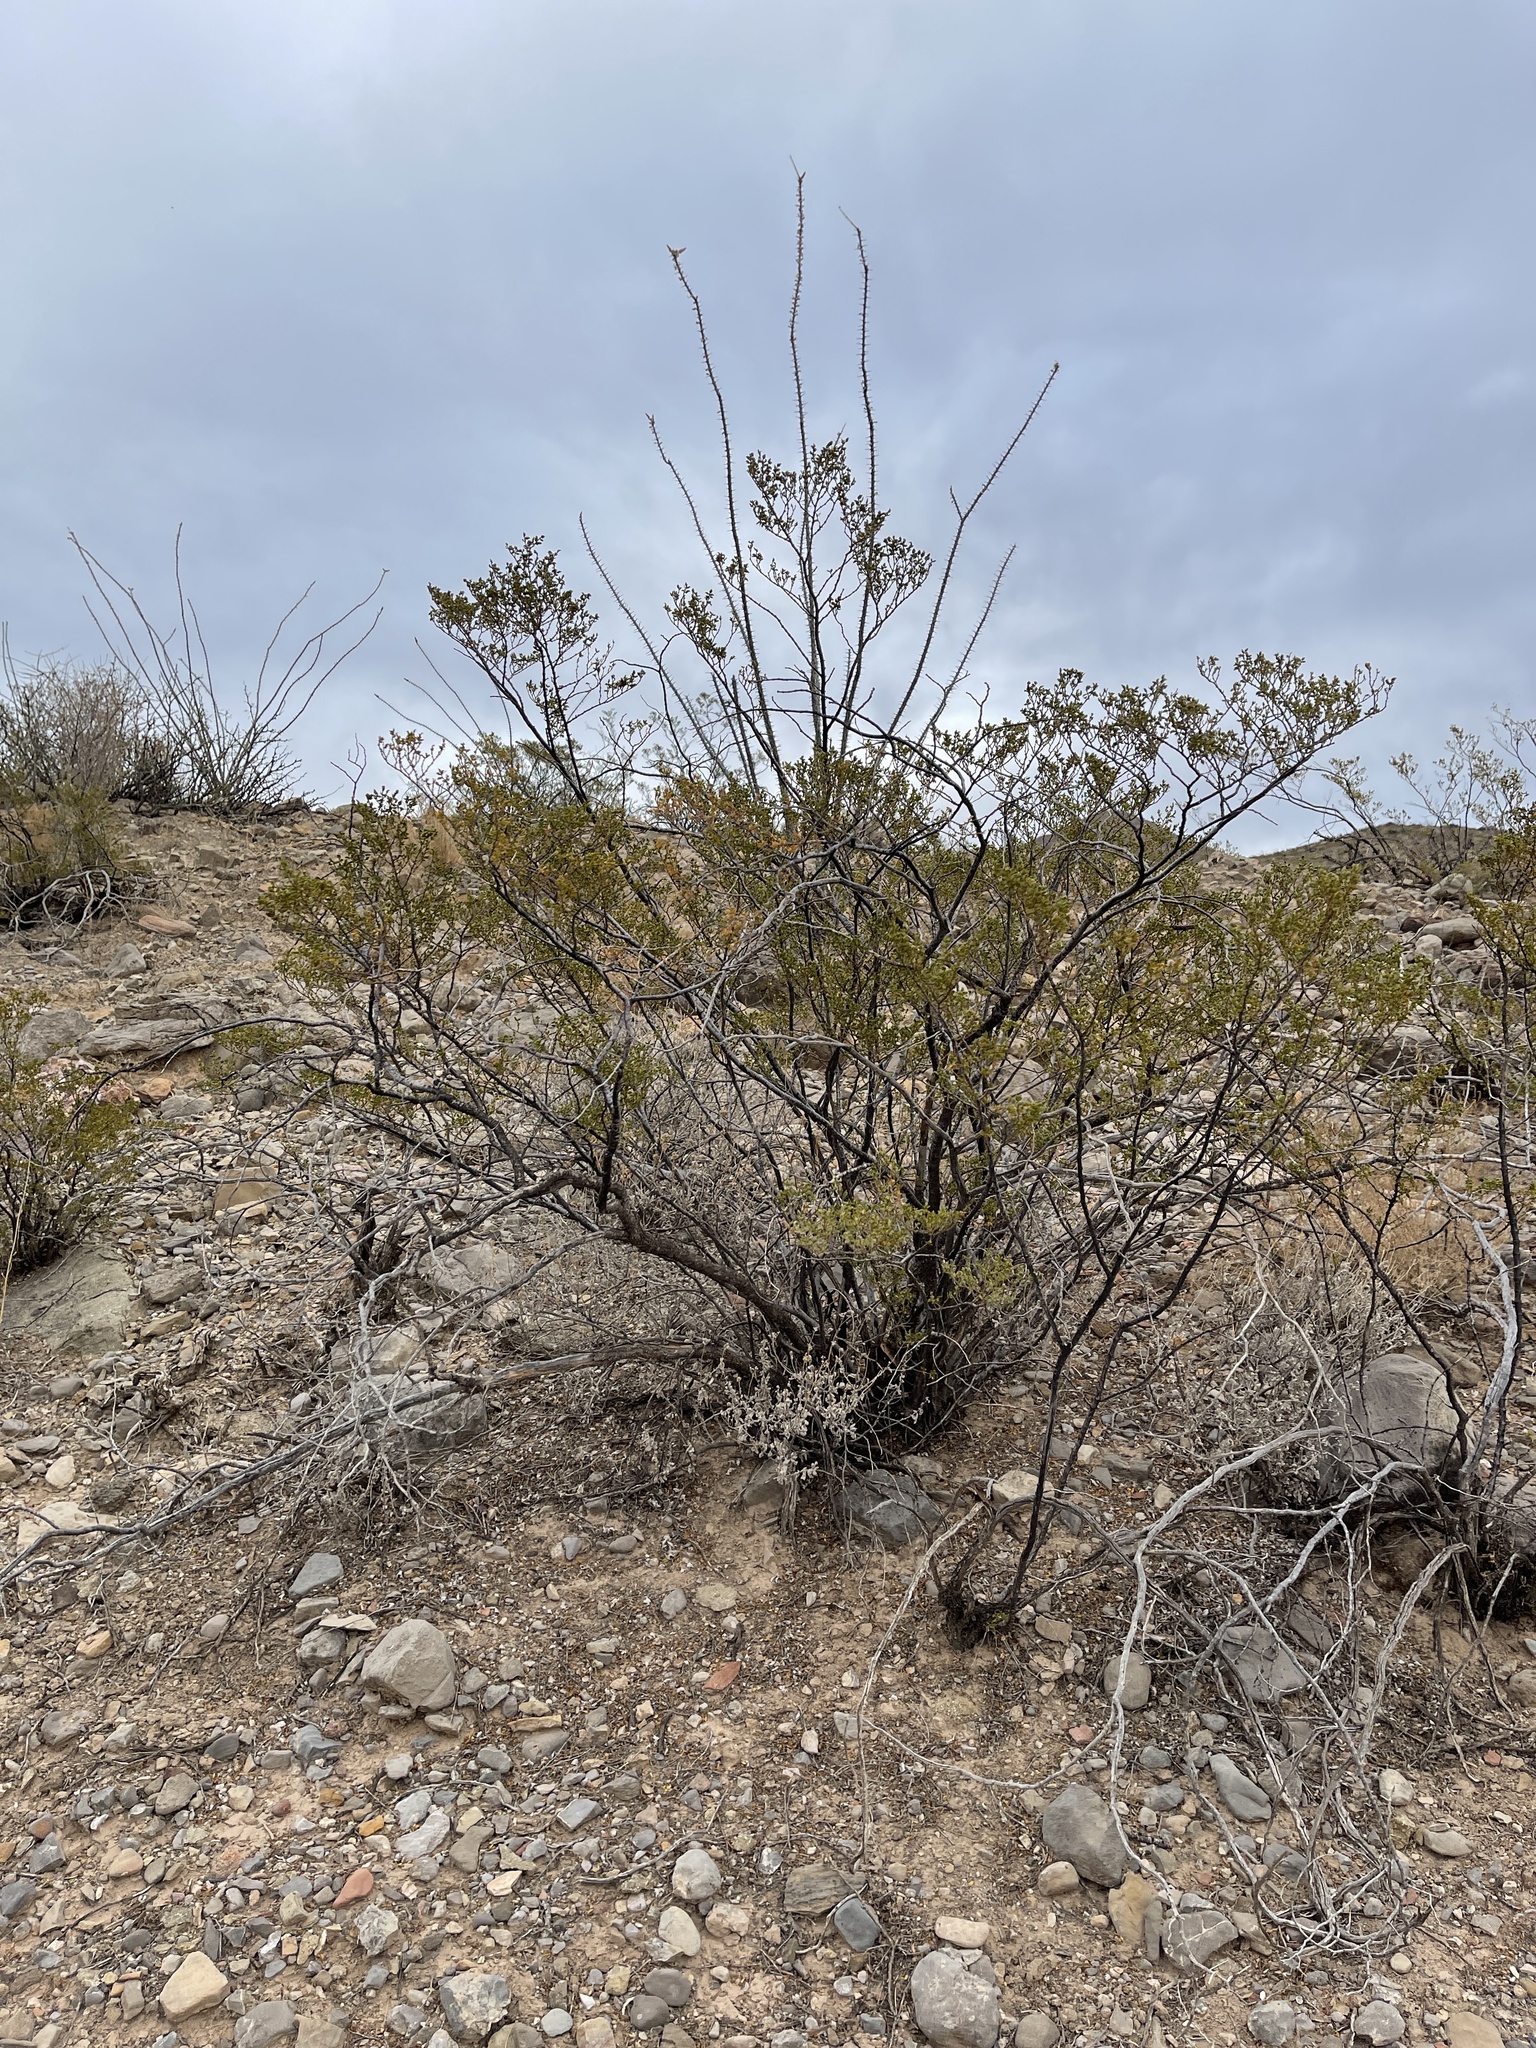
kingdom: Plantae
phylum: Tracheophyta
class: Magnoliopsida
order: Zygophyllales
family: Zygophyllaceae
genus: Larrea
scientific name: Larrea tridentata
